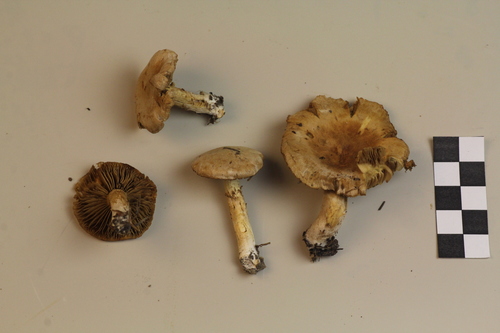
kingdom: Fungi
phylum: Basidiomycota
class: Agaricomycetes
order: Agaricales
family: Inocybaceae
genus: Mallocybe
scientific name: Mallocybe leucoblema
